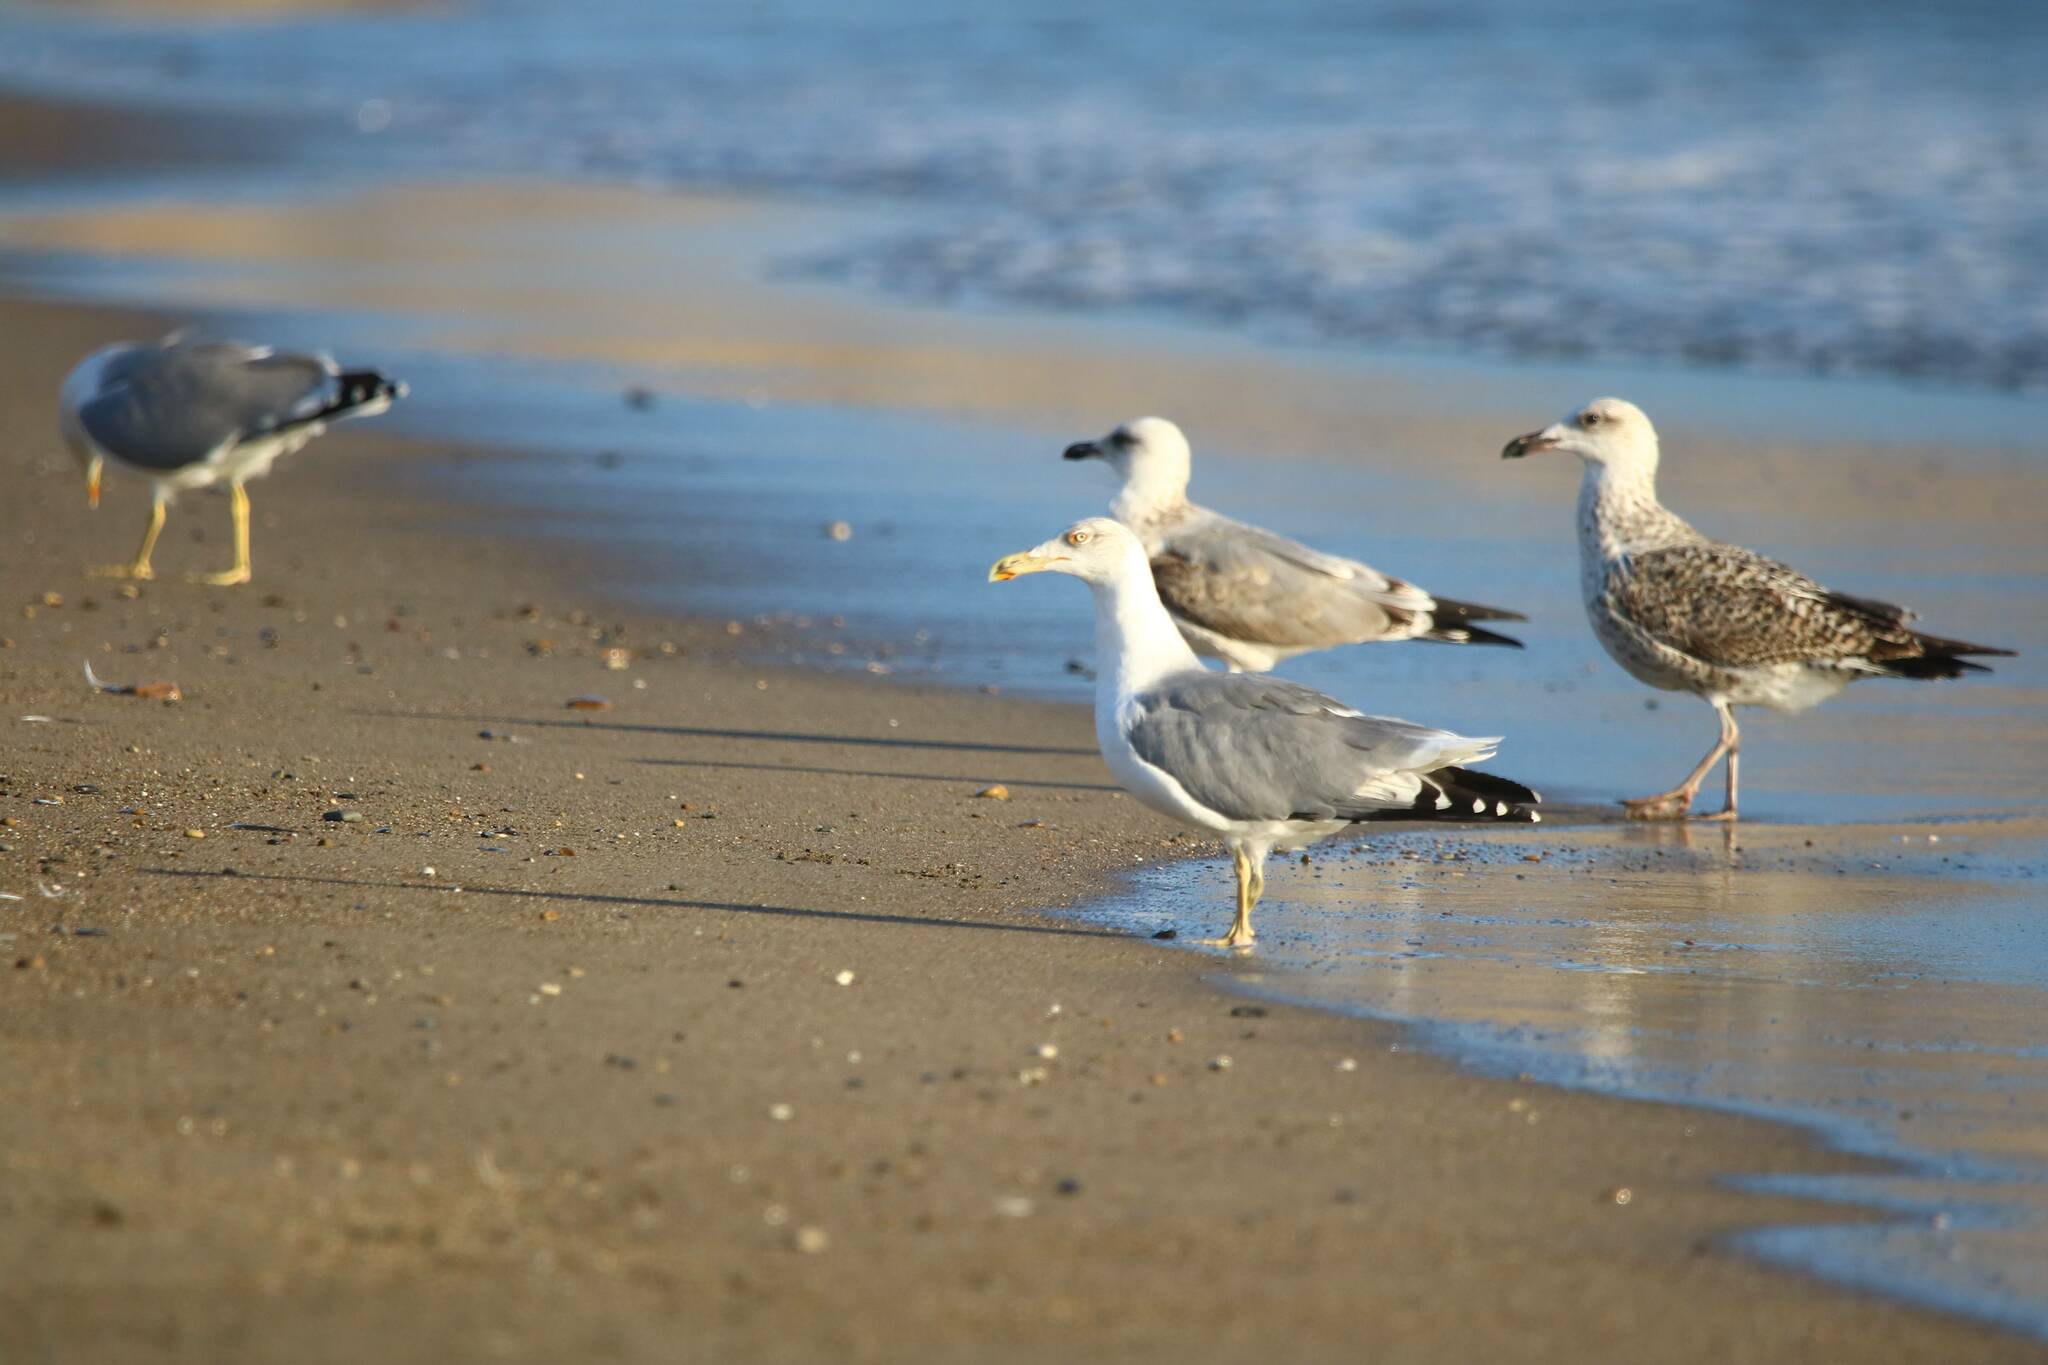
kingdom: Animalia
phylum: Chordata
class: Aves
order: Charadriiformes
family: Laridae
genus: Larus
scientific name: Larus michahellis
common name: Yellow-legged gull
